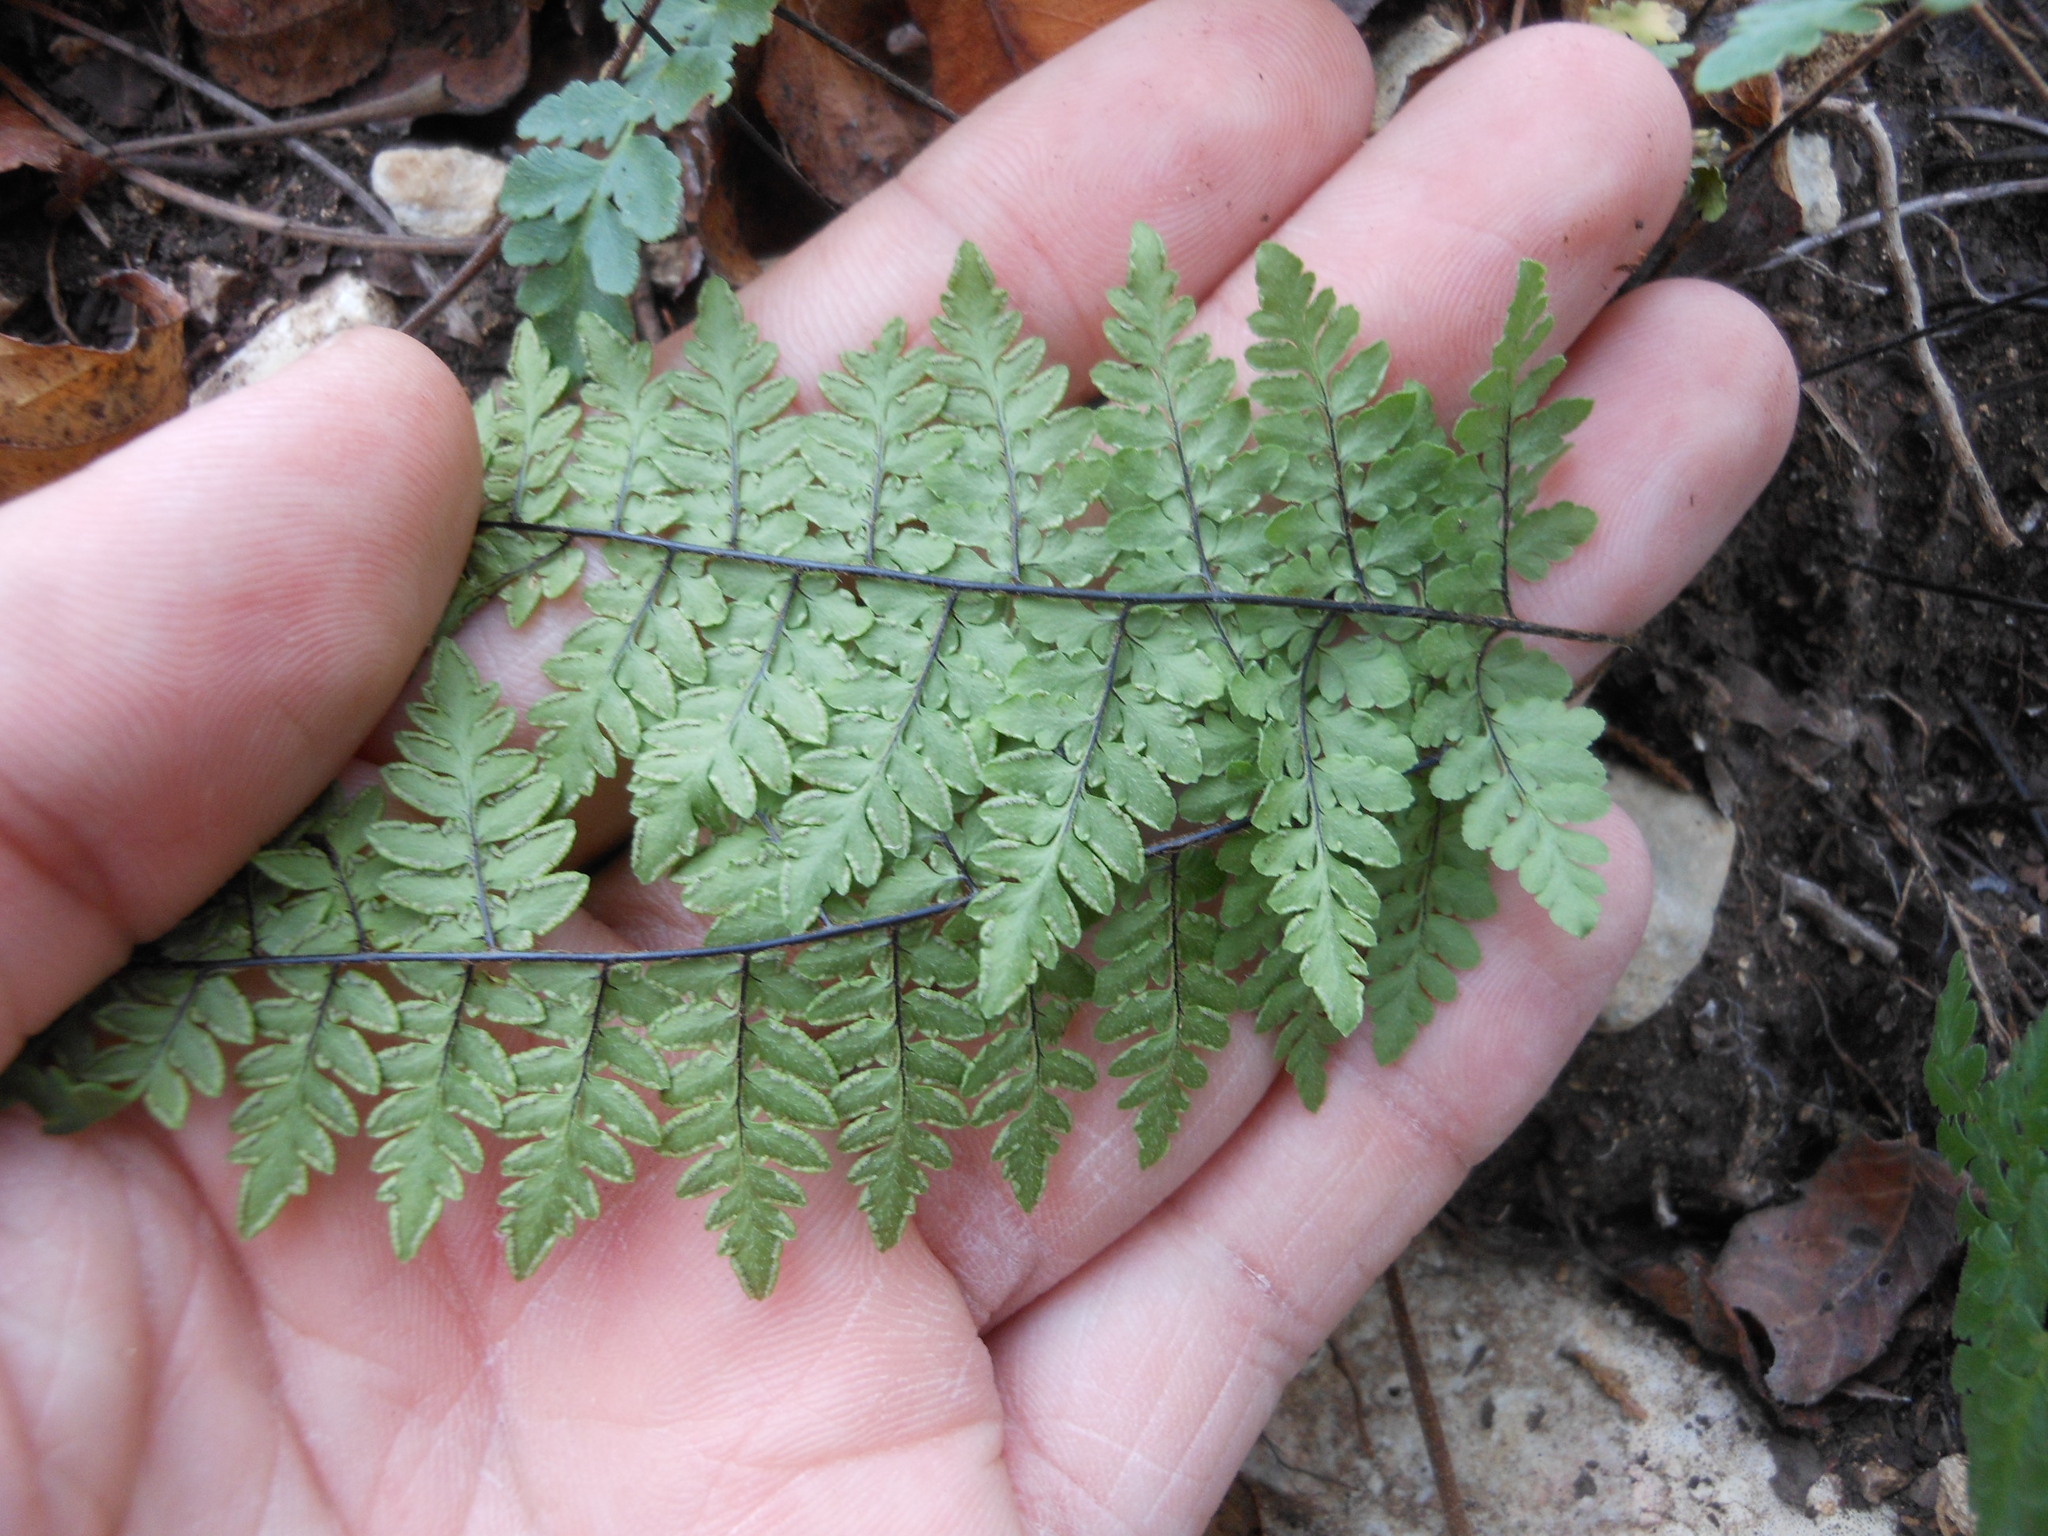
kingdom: Plantae
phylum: Tracheophyta
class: Polypodiopsida
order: Polypodiales
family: Pteridaceae
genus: Myriopteris
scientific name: Myriopteris alabamensis
